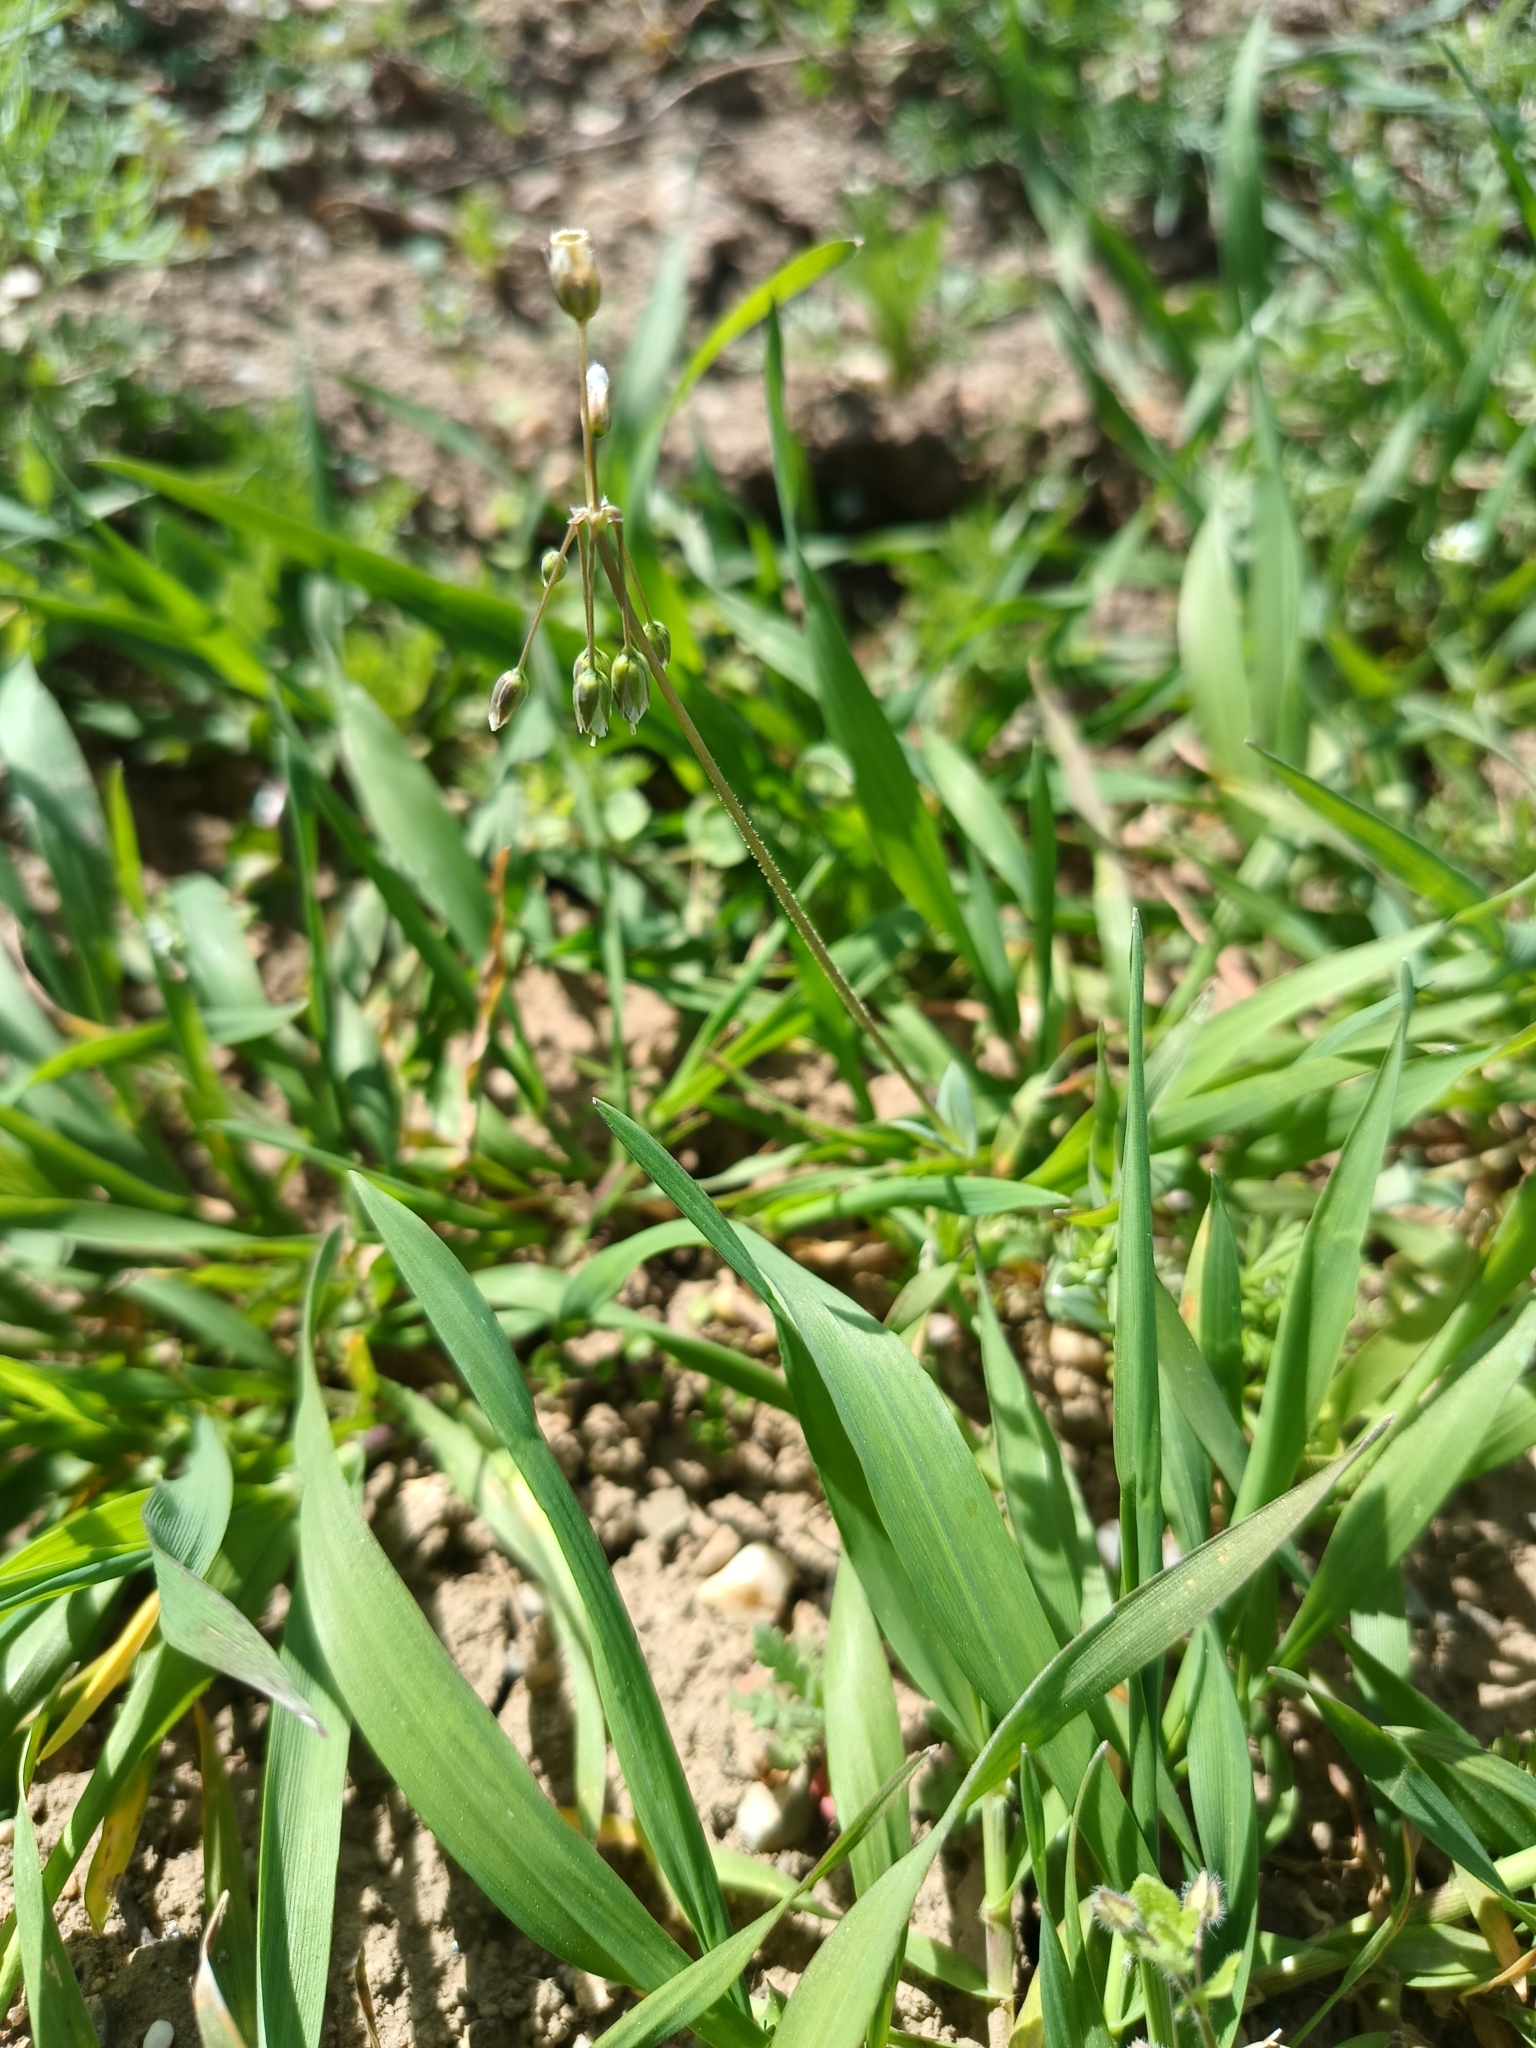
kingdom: Plantae
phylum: Tracheophyta
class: Magnoliopsida
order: Caryophyllales
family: Caryophyllaceae
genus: Holosteum
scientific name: Holosteum umbellatum
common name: Jagged chickweed
